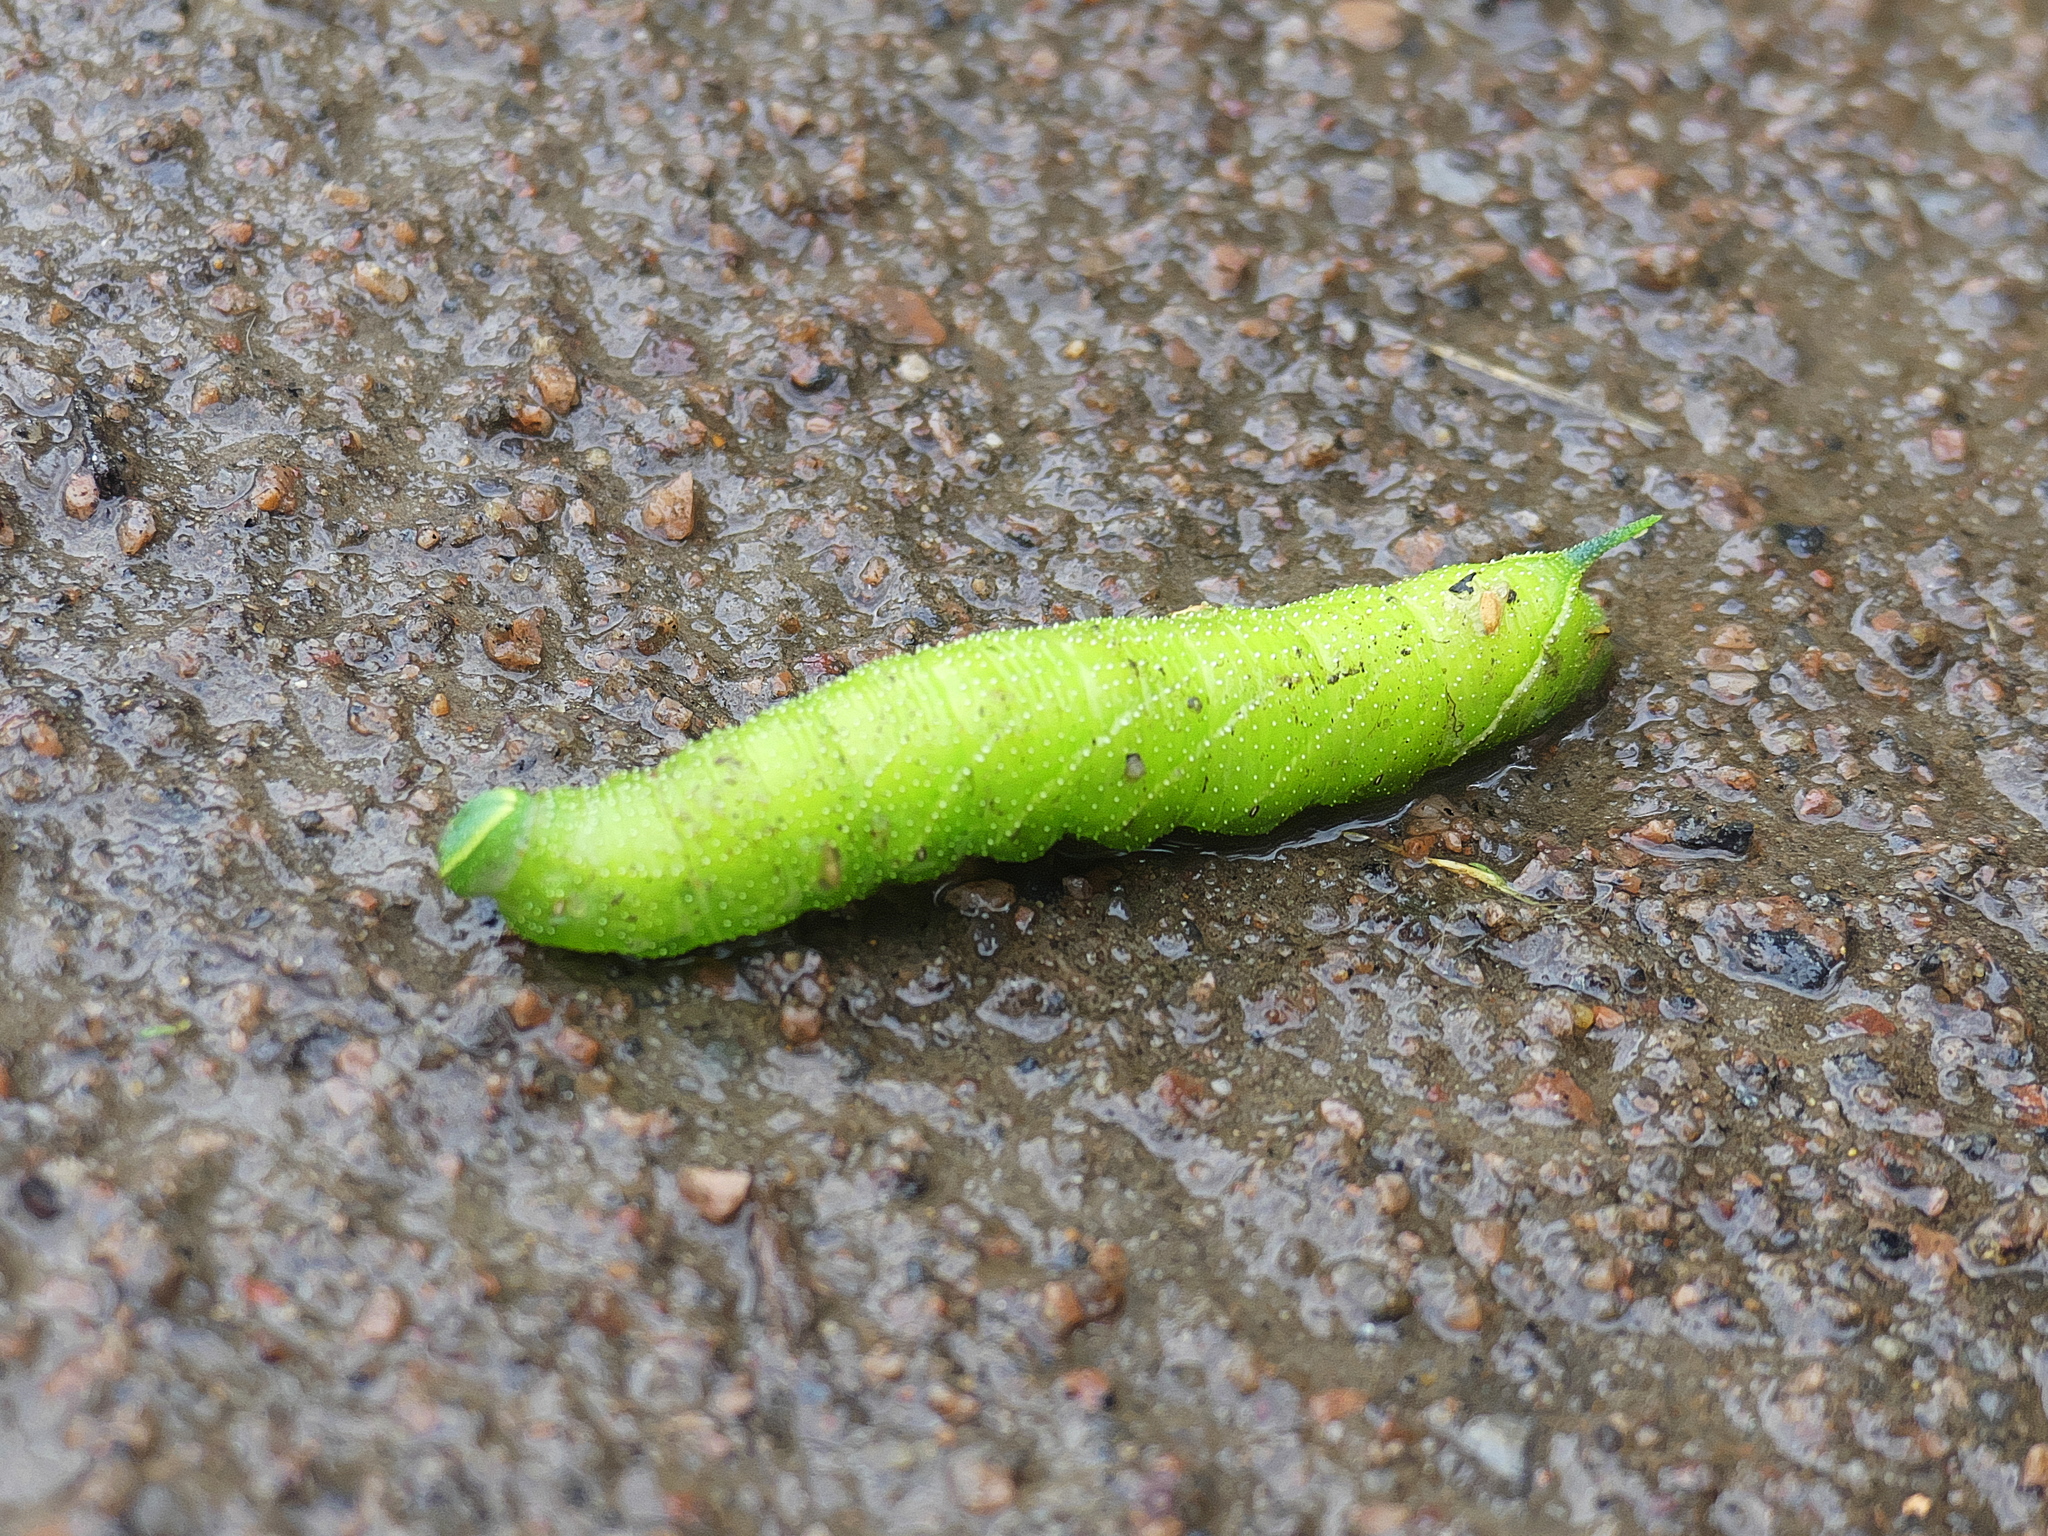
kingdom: Animalia
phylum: Arthropoda
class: Insecta
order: Lepidoptera
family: Sphingidae
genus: Smerinthus
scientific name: Smerinthus ocellata
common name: Eyed hawk-moth
